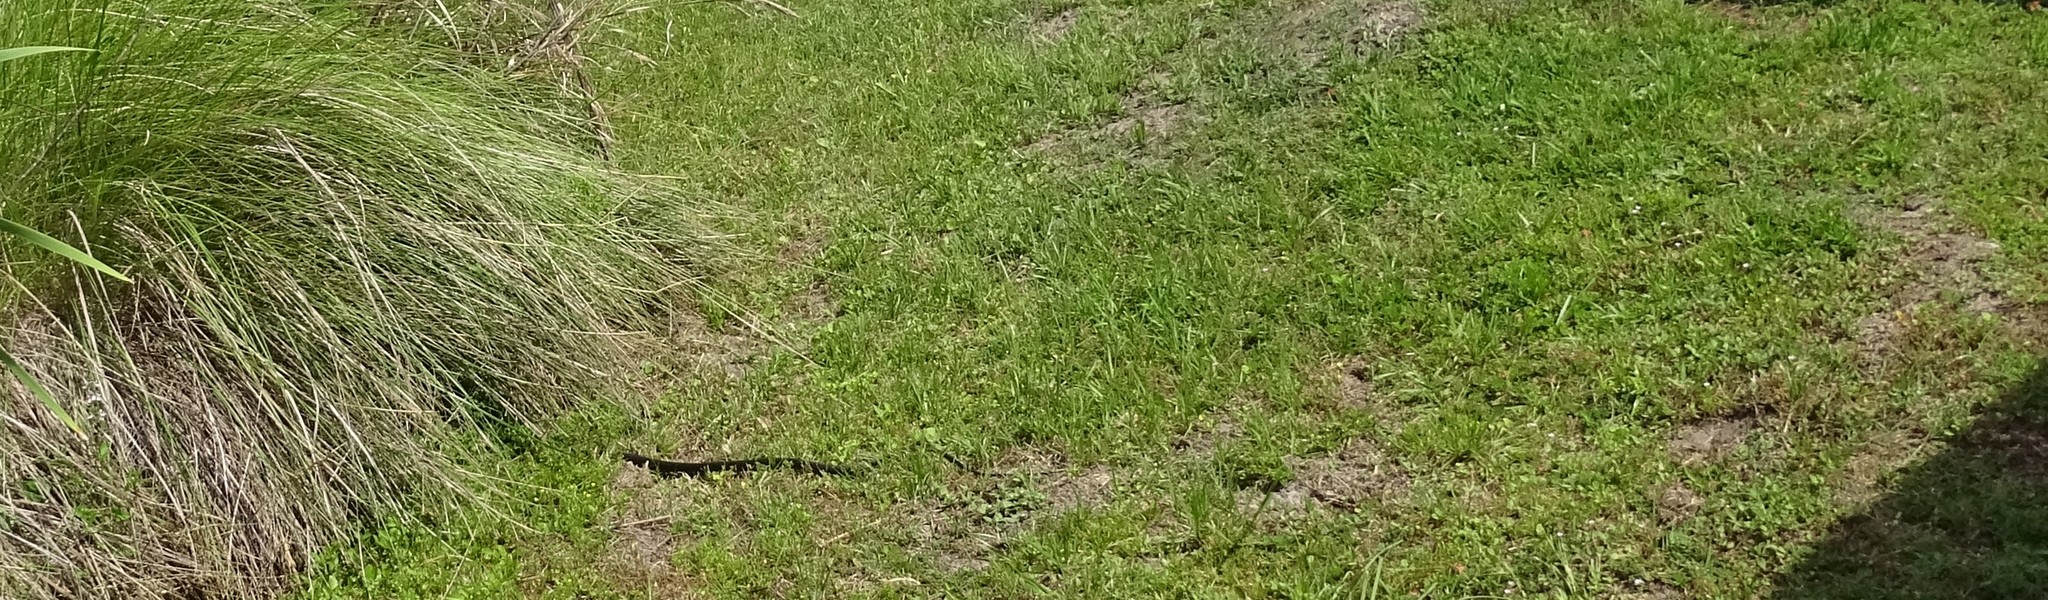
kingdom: Animalia
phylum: Chordata
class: Squamata
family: Colubridae
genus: Coluber
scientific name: Coluber constrictor
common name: Eastern racer
